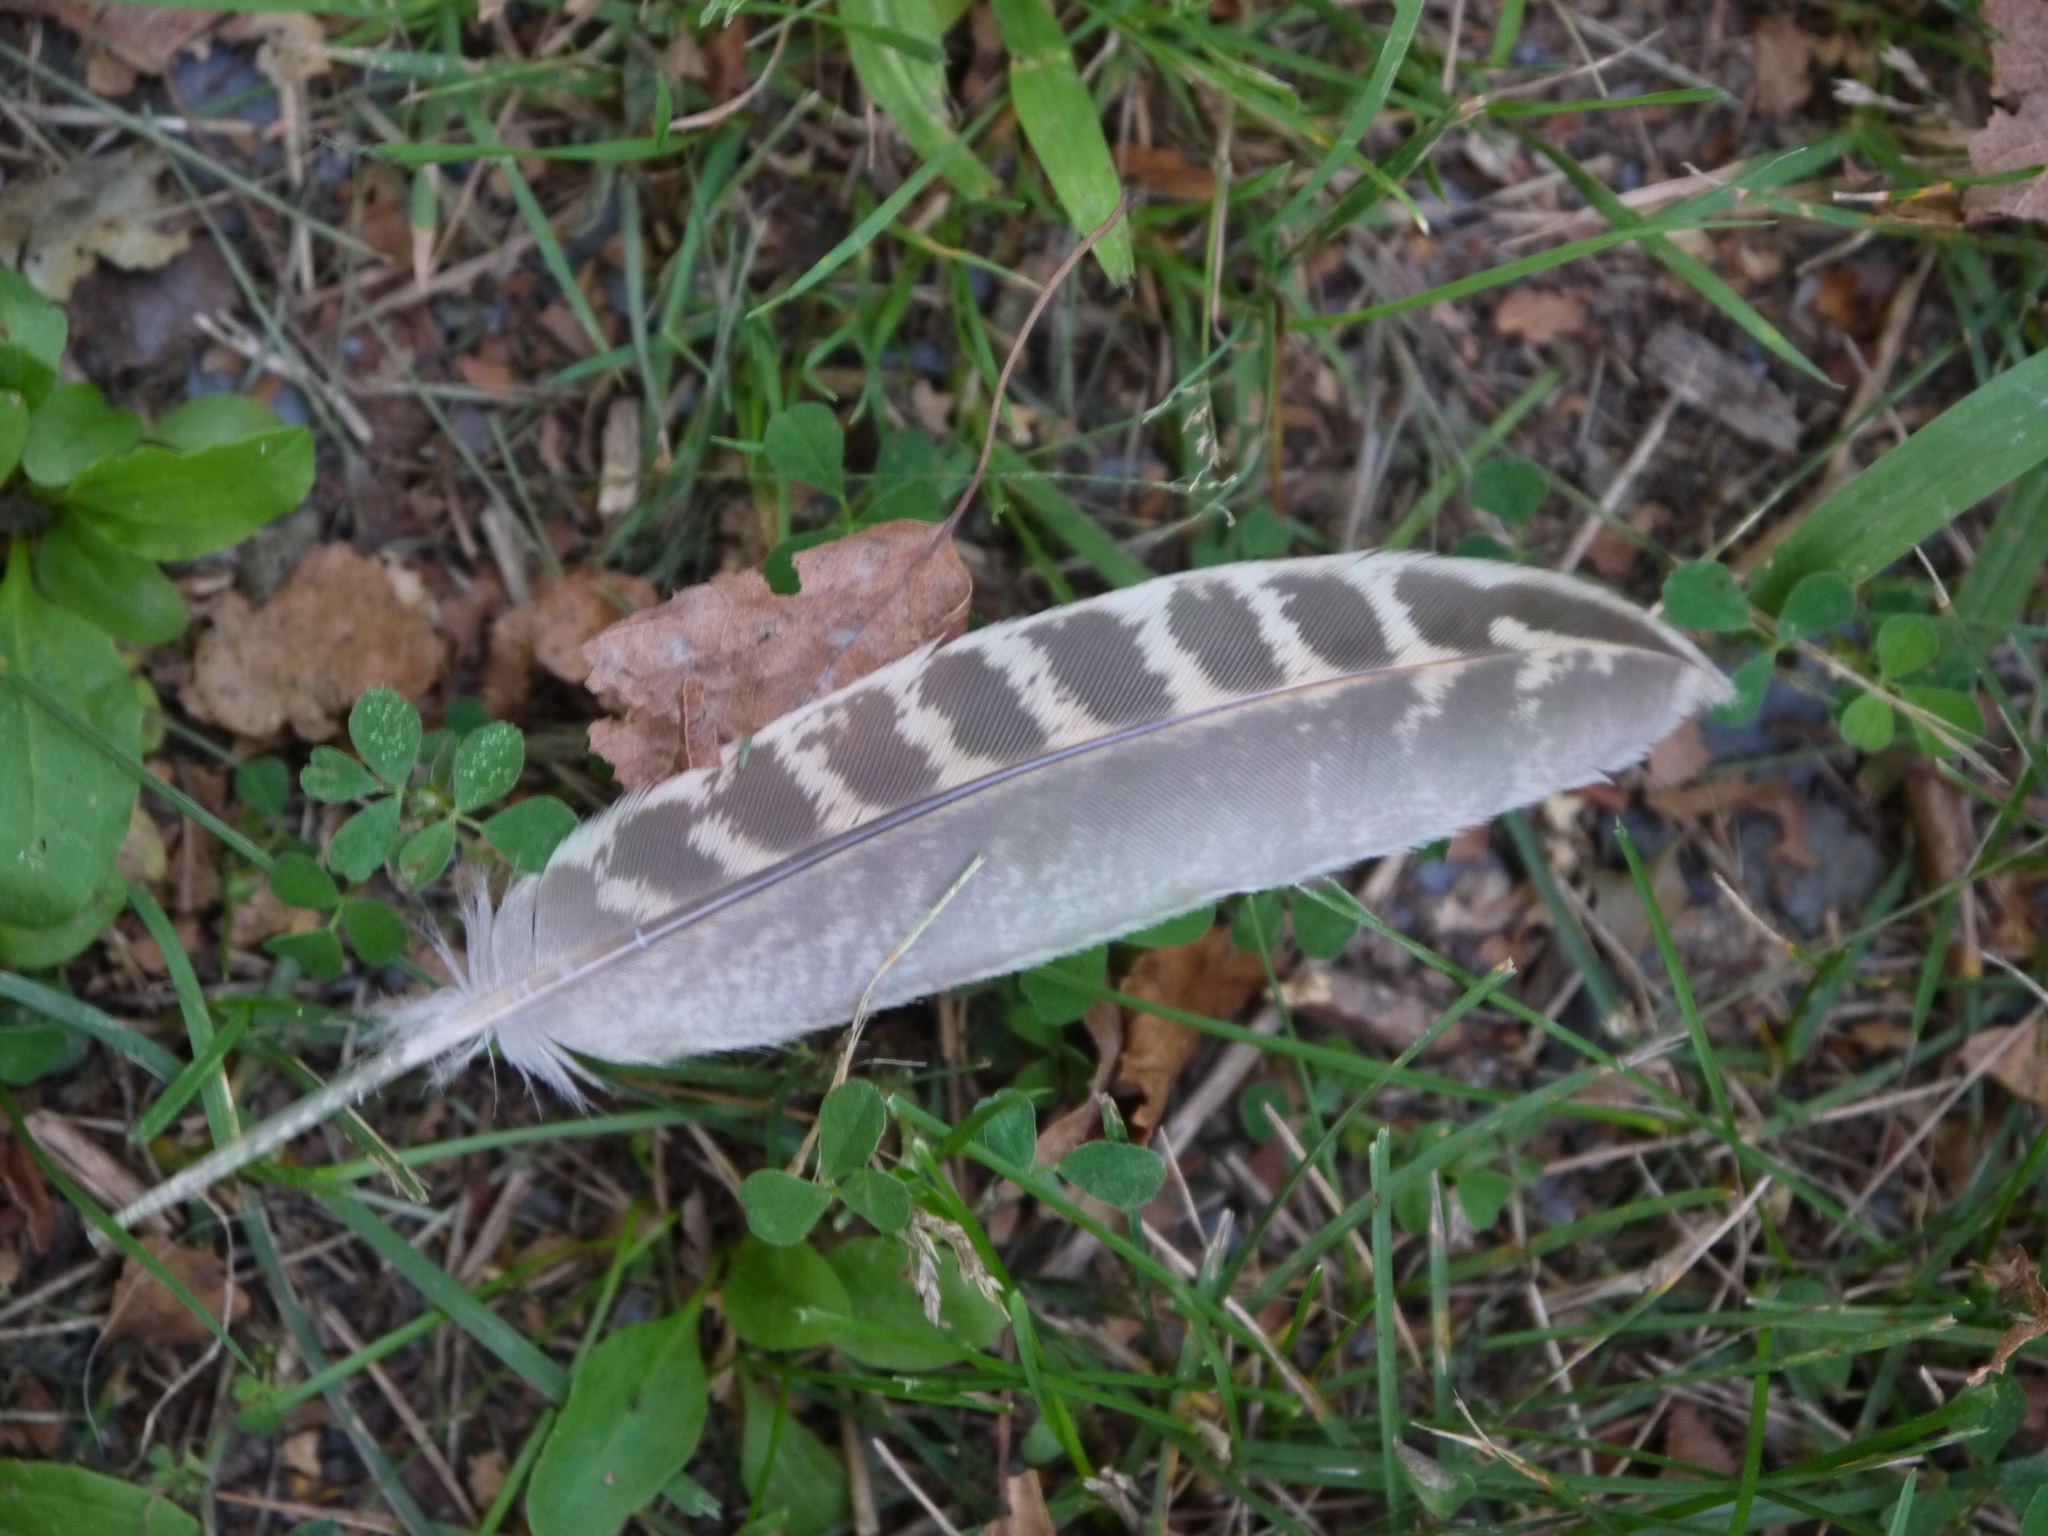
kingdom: Animalia
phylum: Chordata
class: Aves
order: Galliformes
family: Phasianidae
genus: Phasianus
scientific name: Phasianus colchicus
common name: Common pheasant
